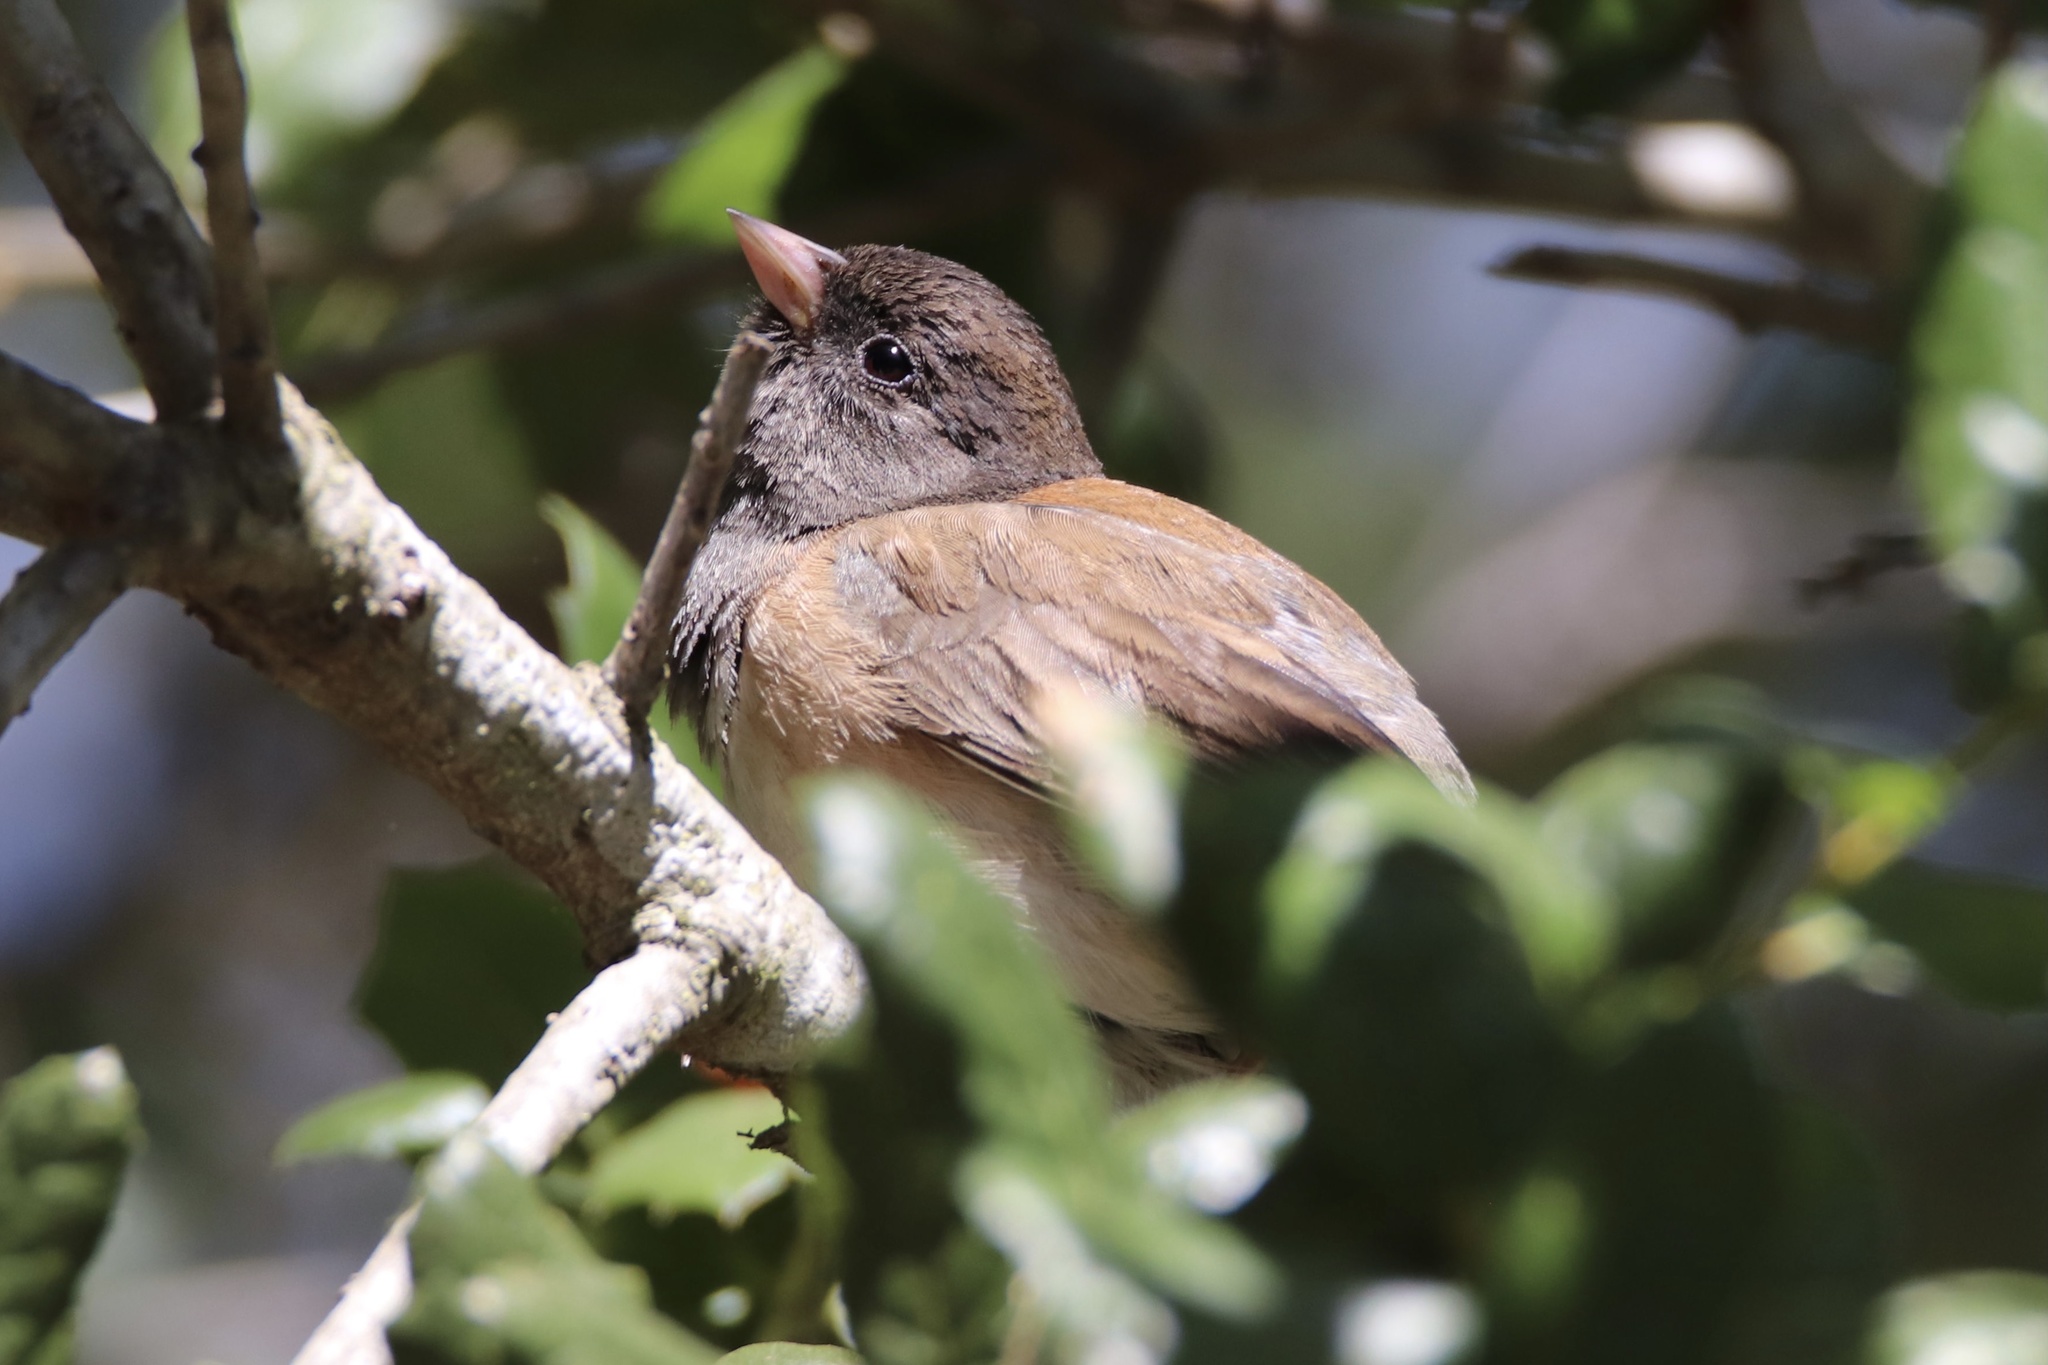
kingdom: Animalia
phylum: Chordata
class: Aves
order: Passeriformes
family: Passerellidae
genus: Junco
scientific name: Junco hyemalis
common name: Dark-eyed junco
